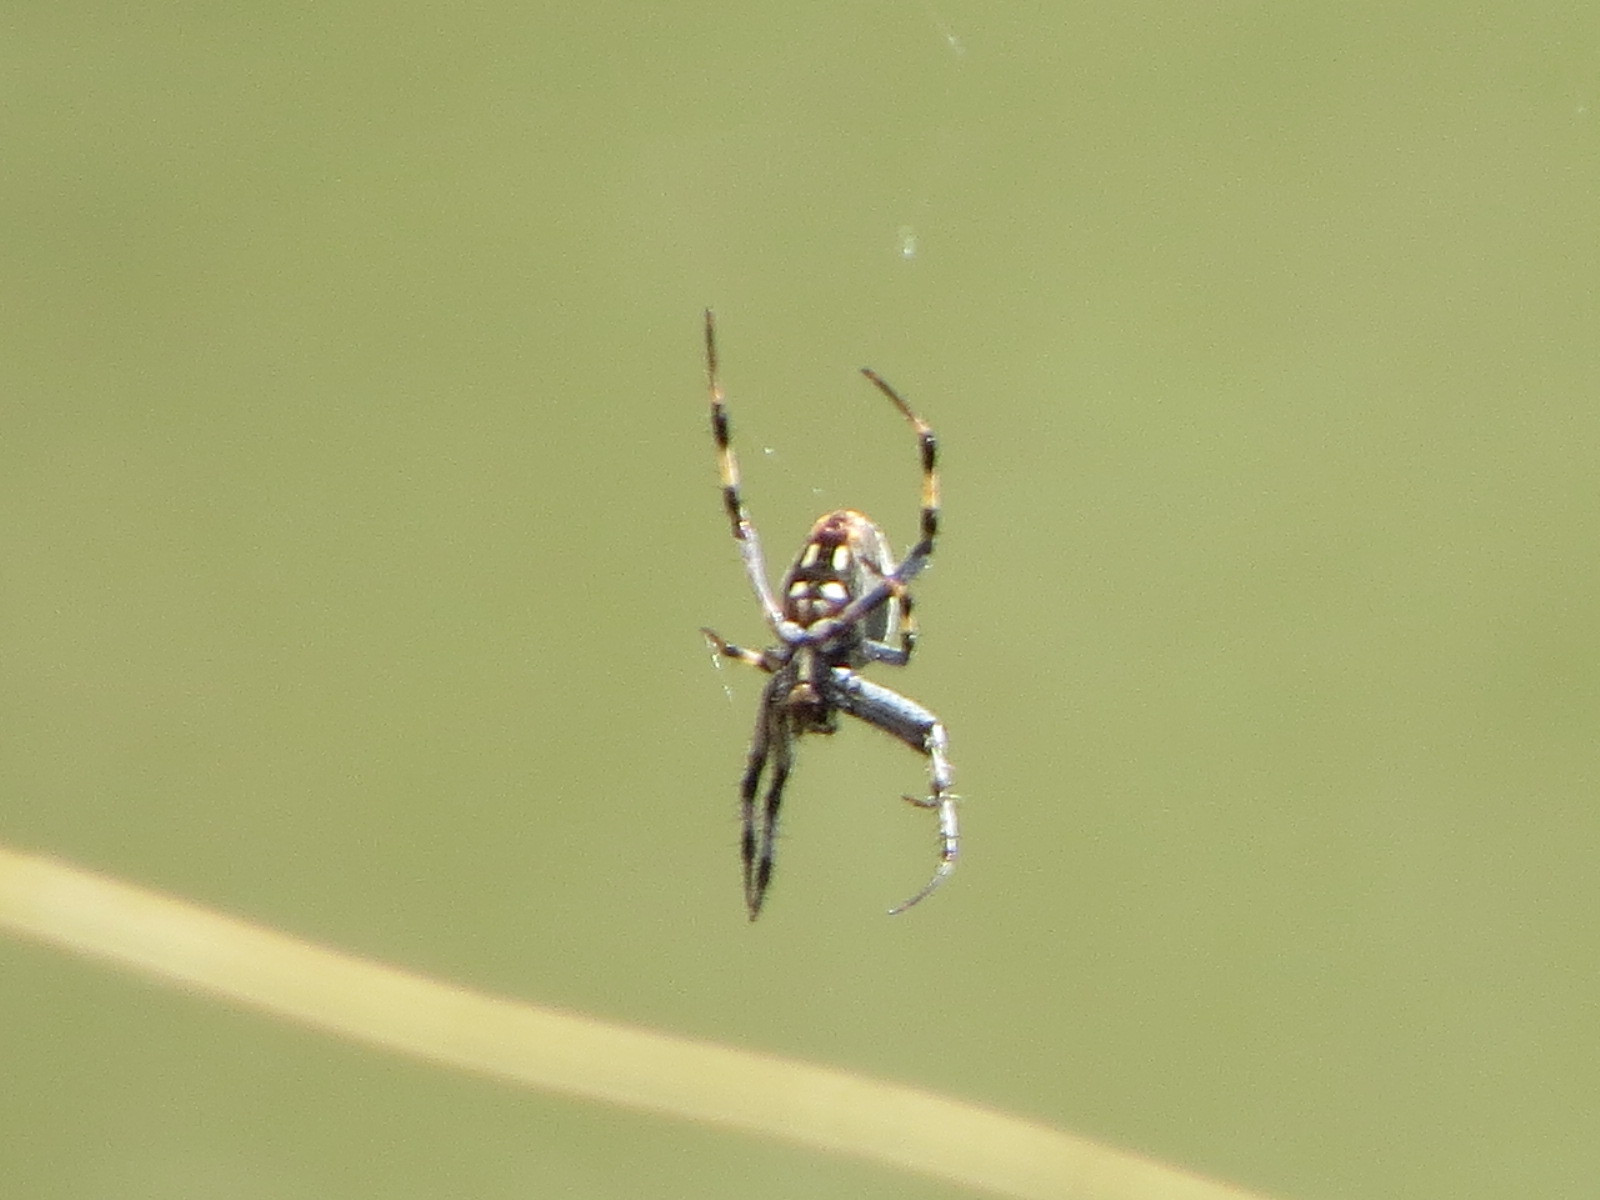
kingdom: Animalia
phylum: Arthropoda
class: Arachnida
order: Araneae
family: Araneidae
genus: Neoscona
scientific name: Neoscona oaxacensis
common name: Orb weavers
